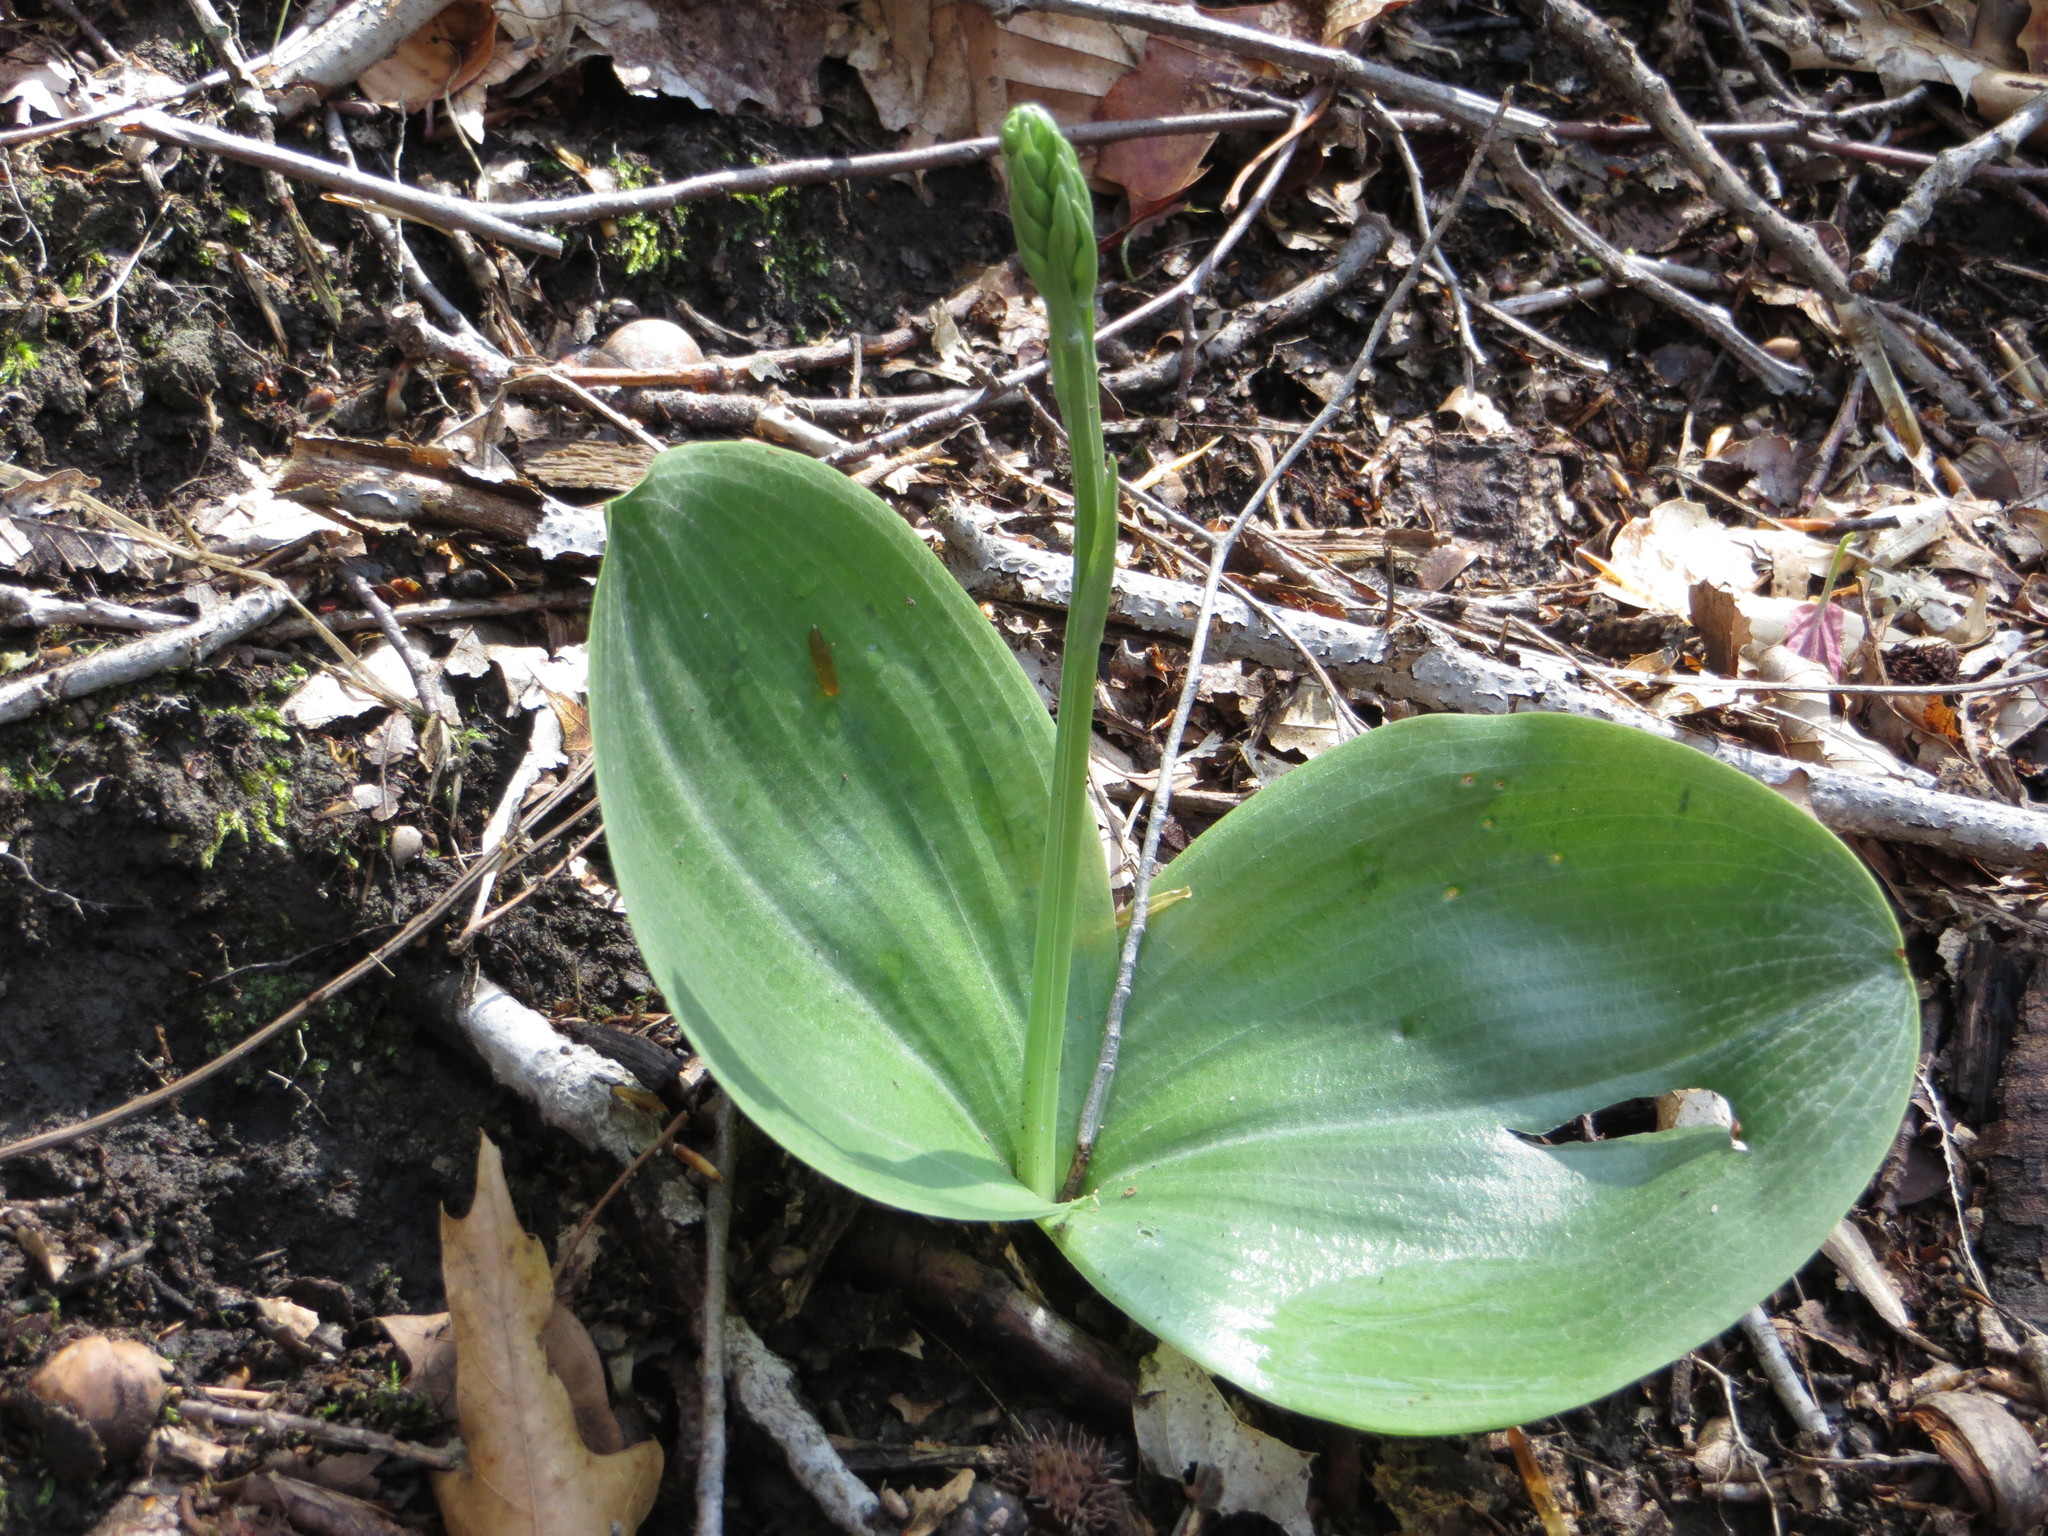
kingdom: Plantae
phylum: Tracheophyta
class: Liliopsida
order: Asparagales
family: Orchidaceae
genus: Platanthera
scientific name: Platanthera orbiculata
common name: Large round-leaved orchid
